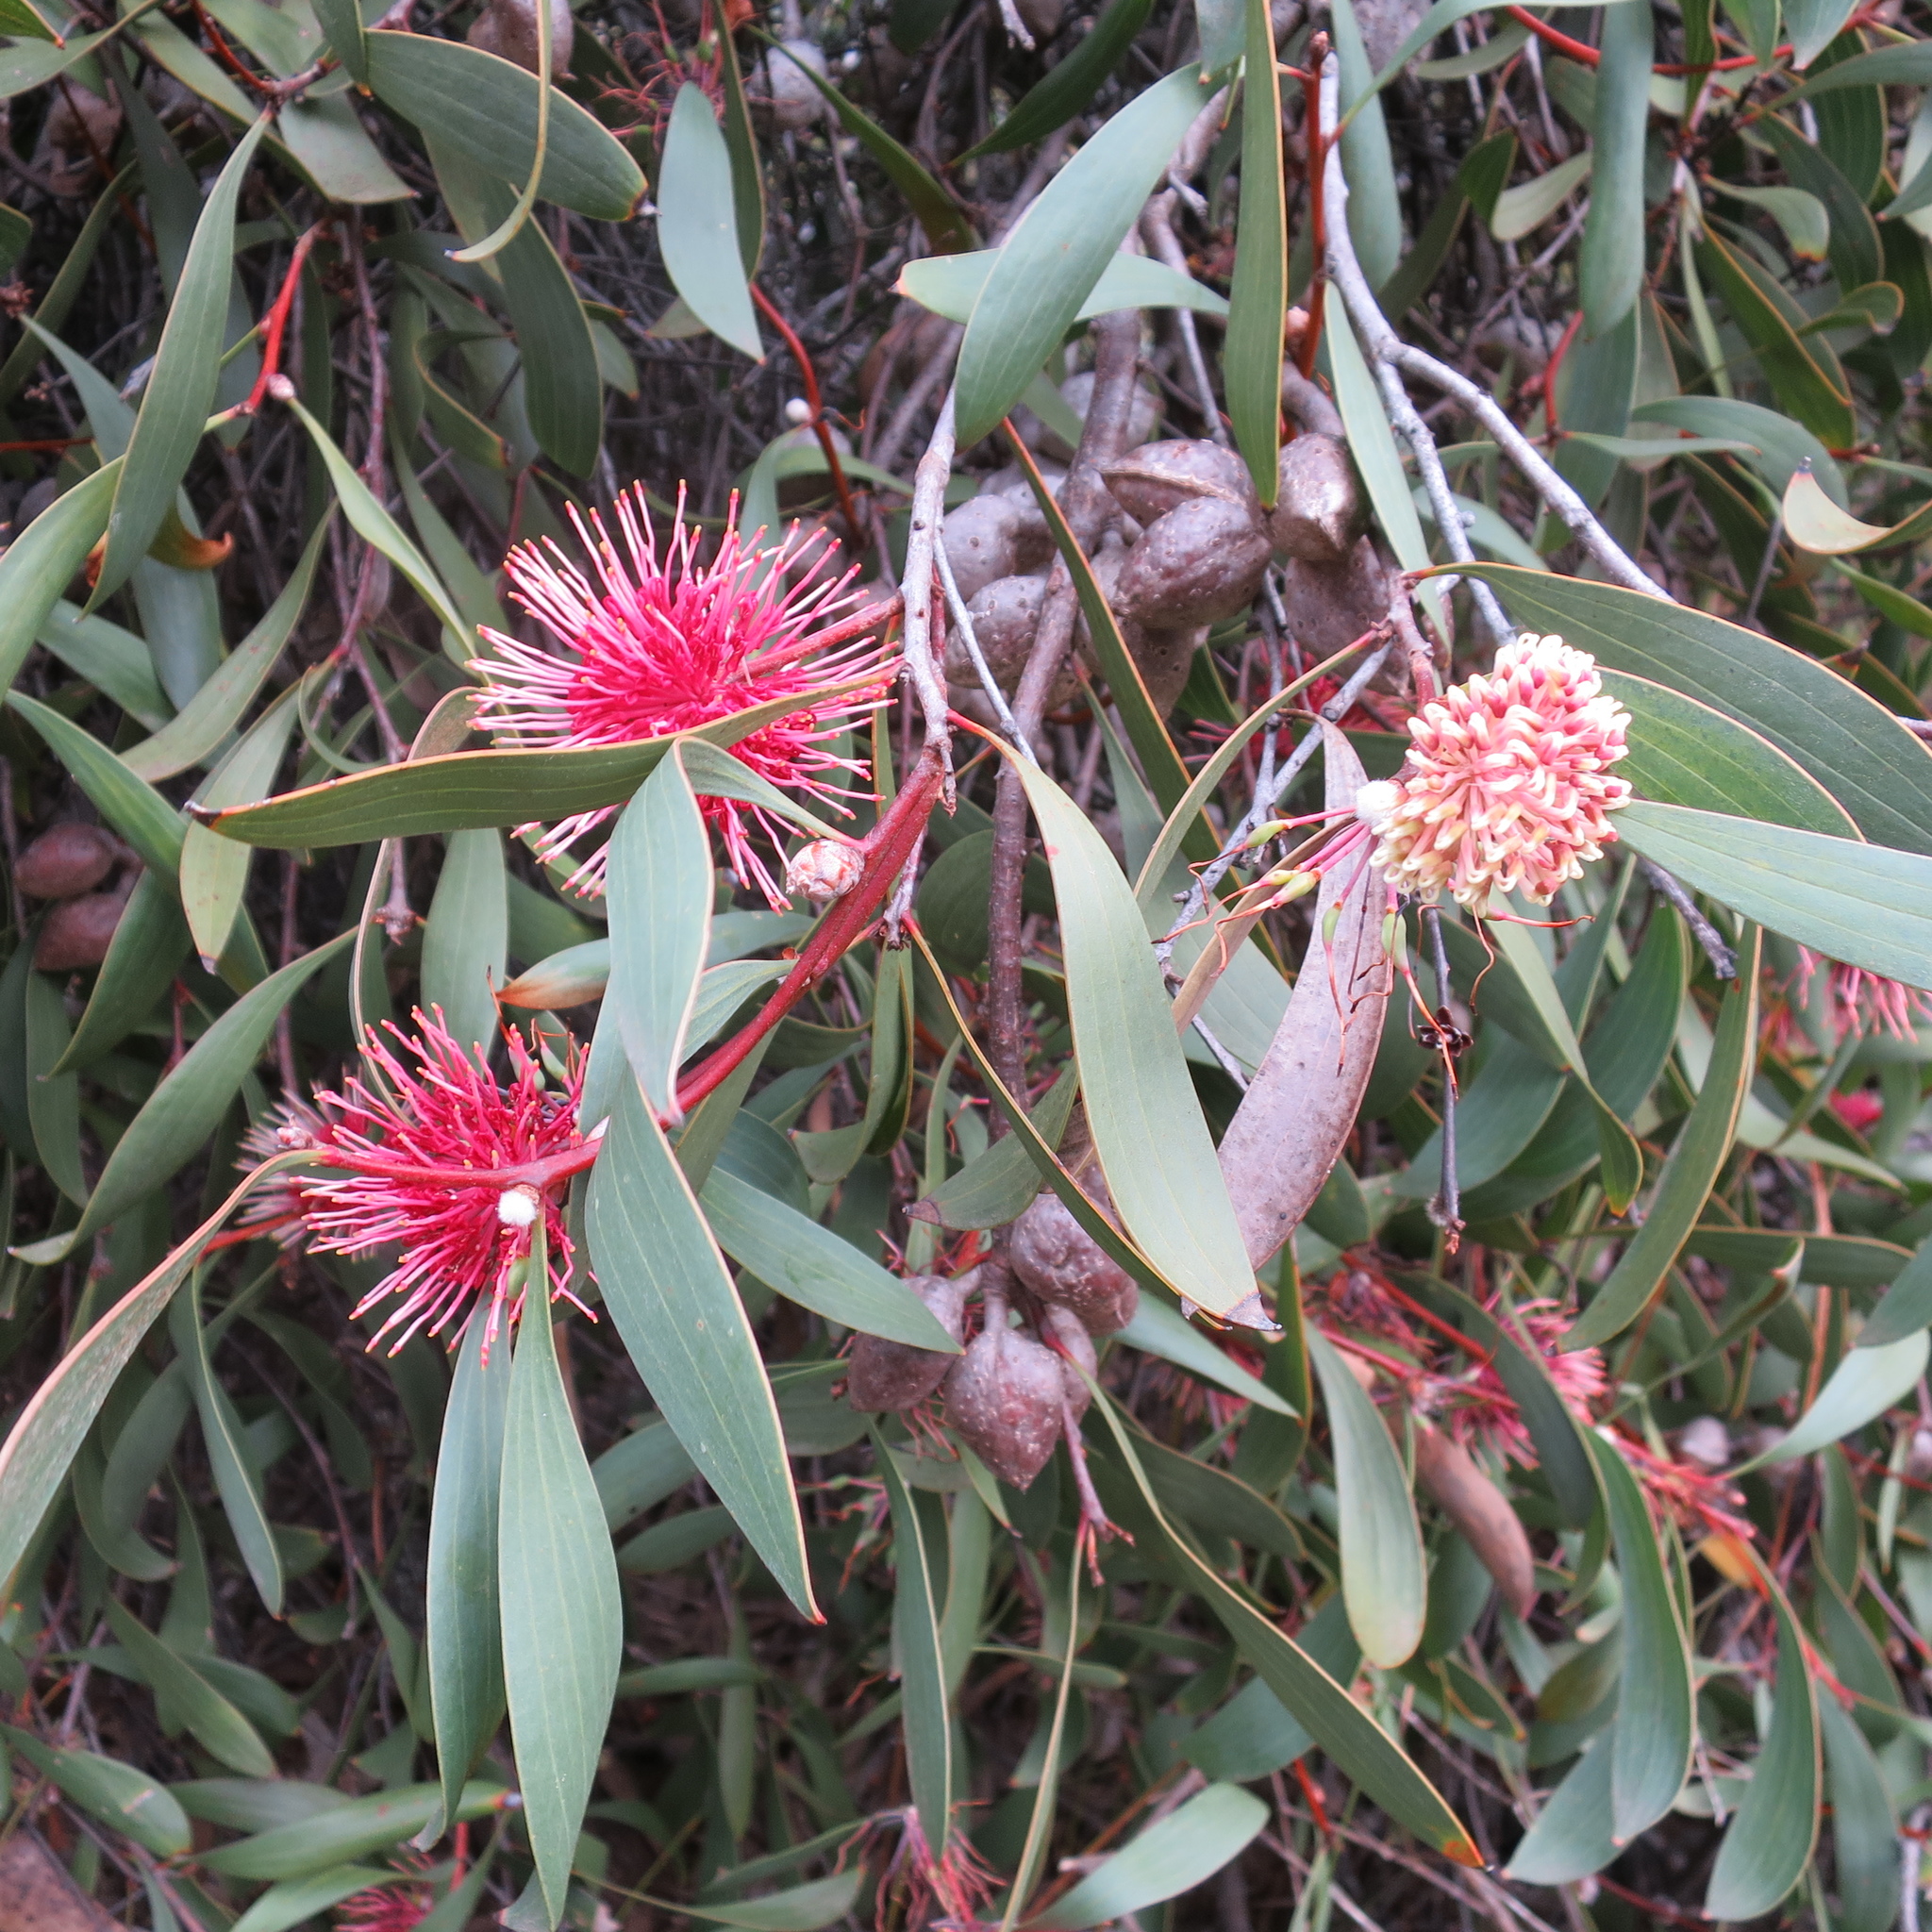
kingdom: Plantae
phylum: Tracheophyta
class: Magnoliopsida
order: Proteales
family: Proteaceae
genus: Hakea
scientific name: Hakea laurina
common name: Cushion hakea
